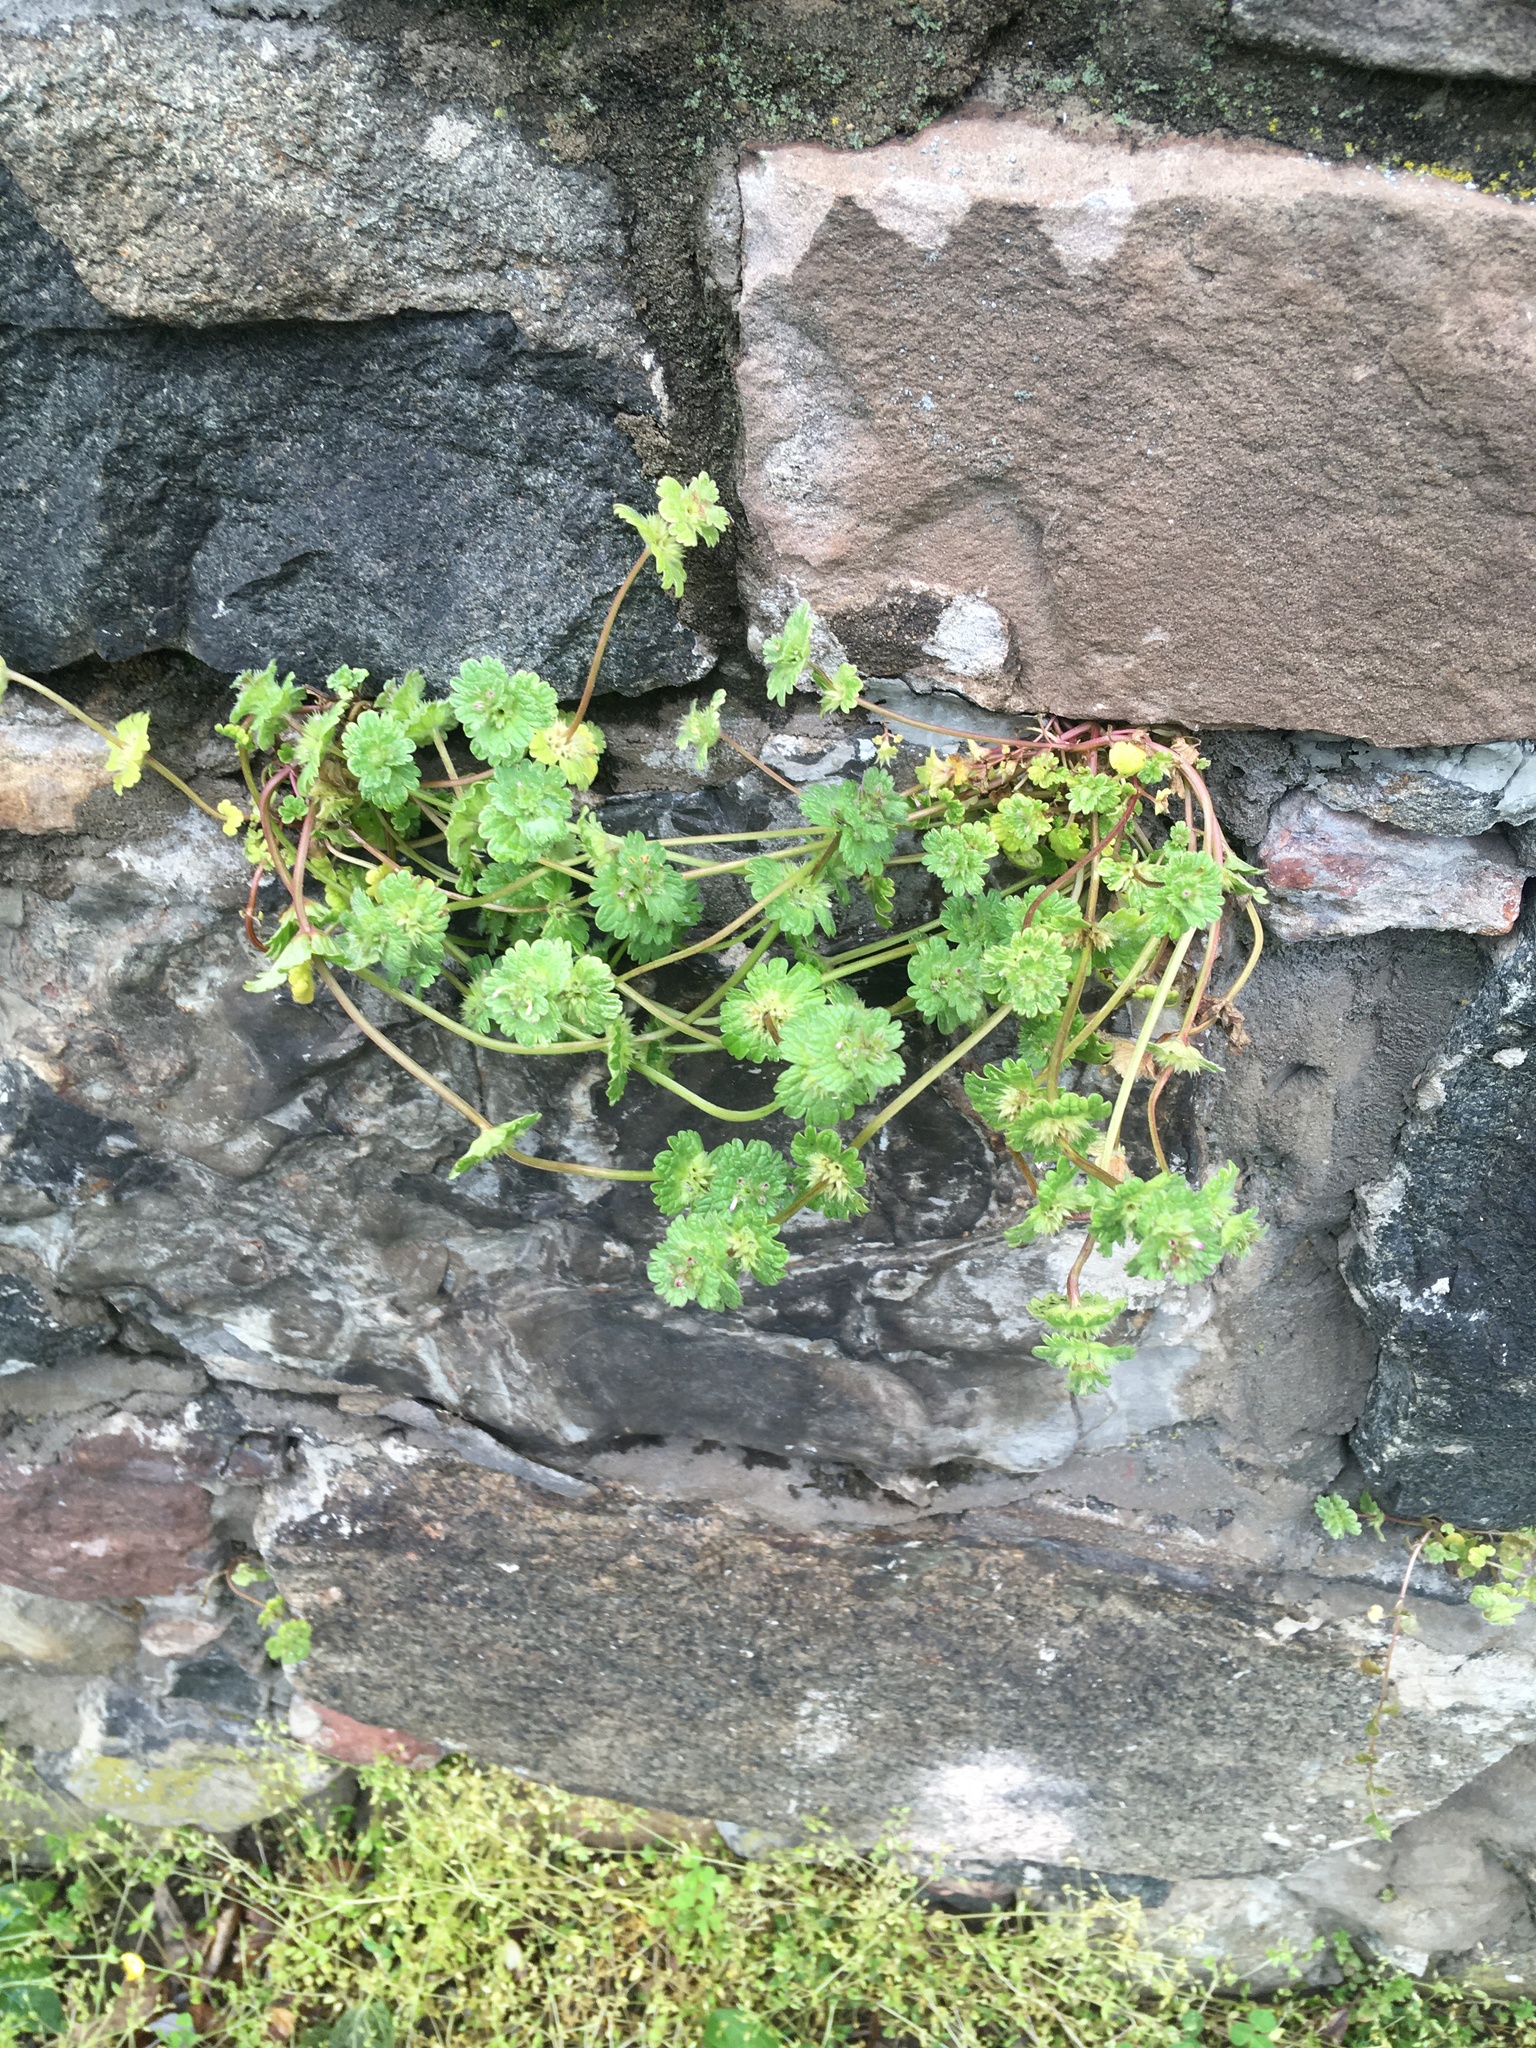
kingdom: Plantae
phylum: Tracheophyta
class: Magnoliopsida
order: Lamiales
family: Lamiaceae
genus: Lamium
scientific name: Lamium amplexicaule
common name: Henbit dead-nettle
